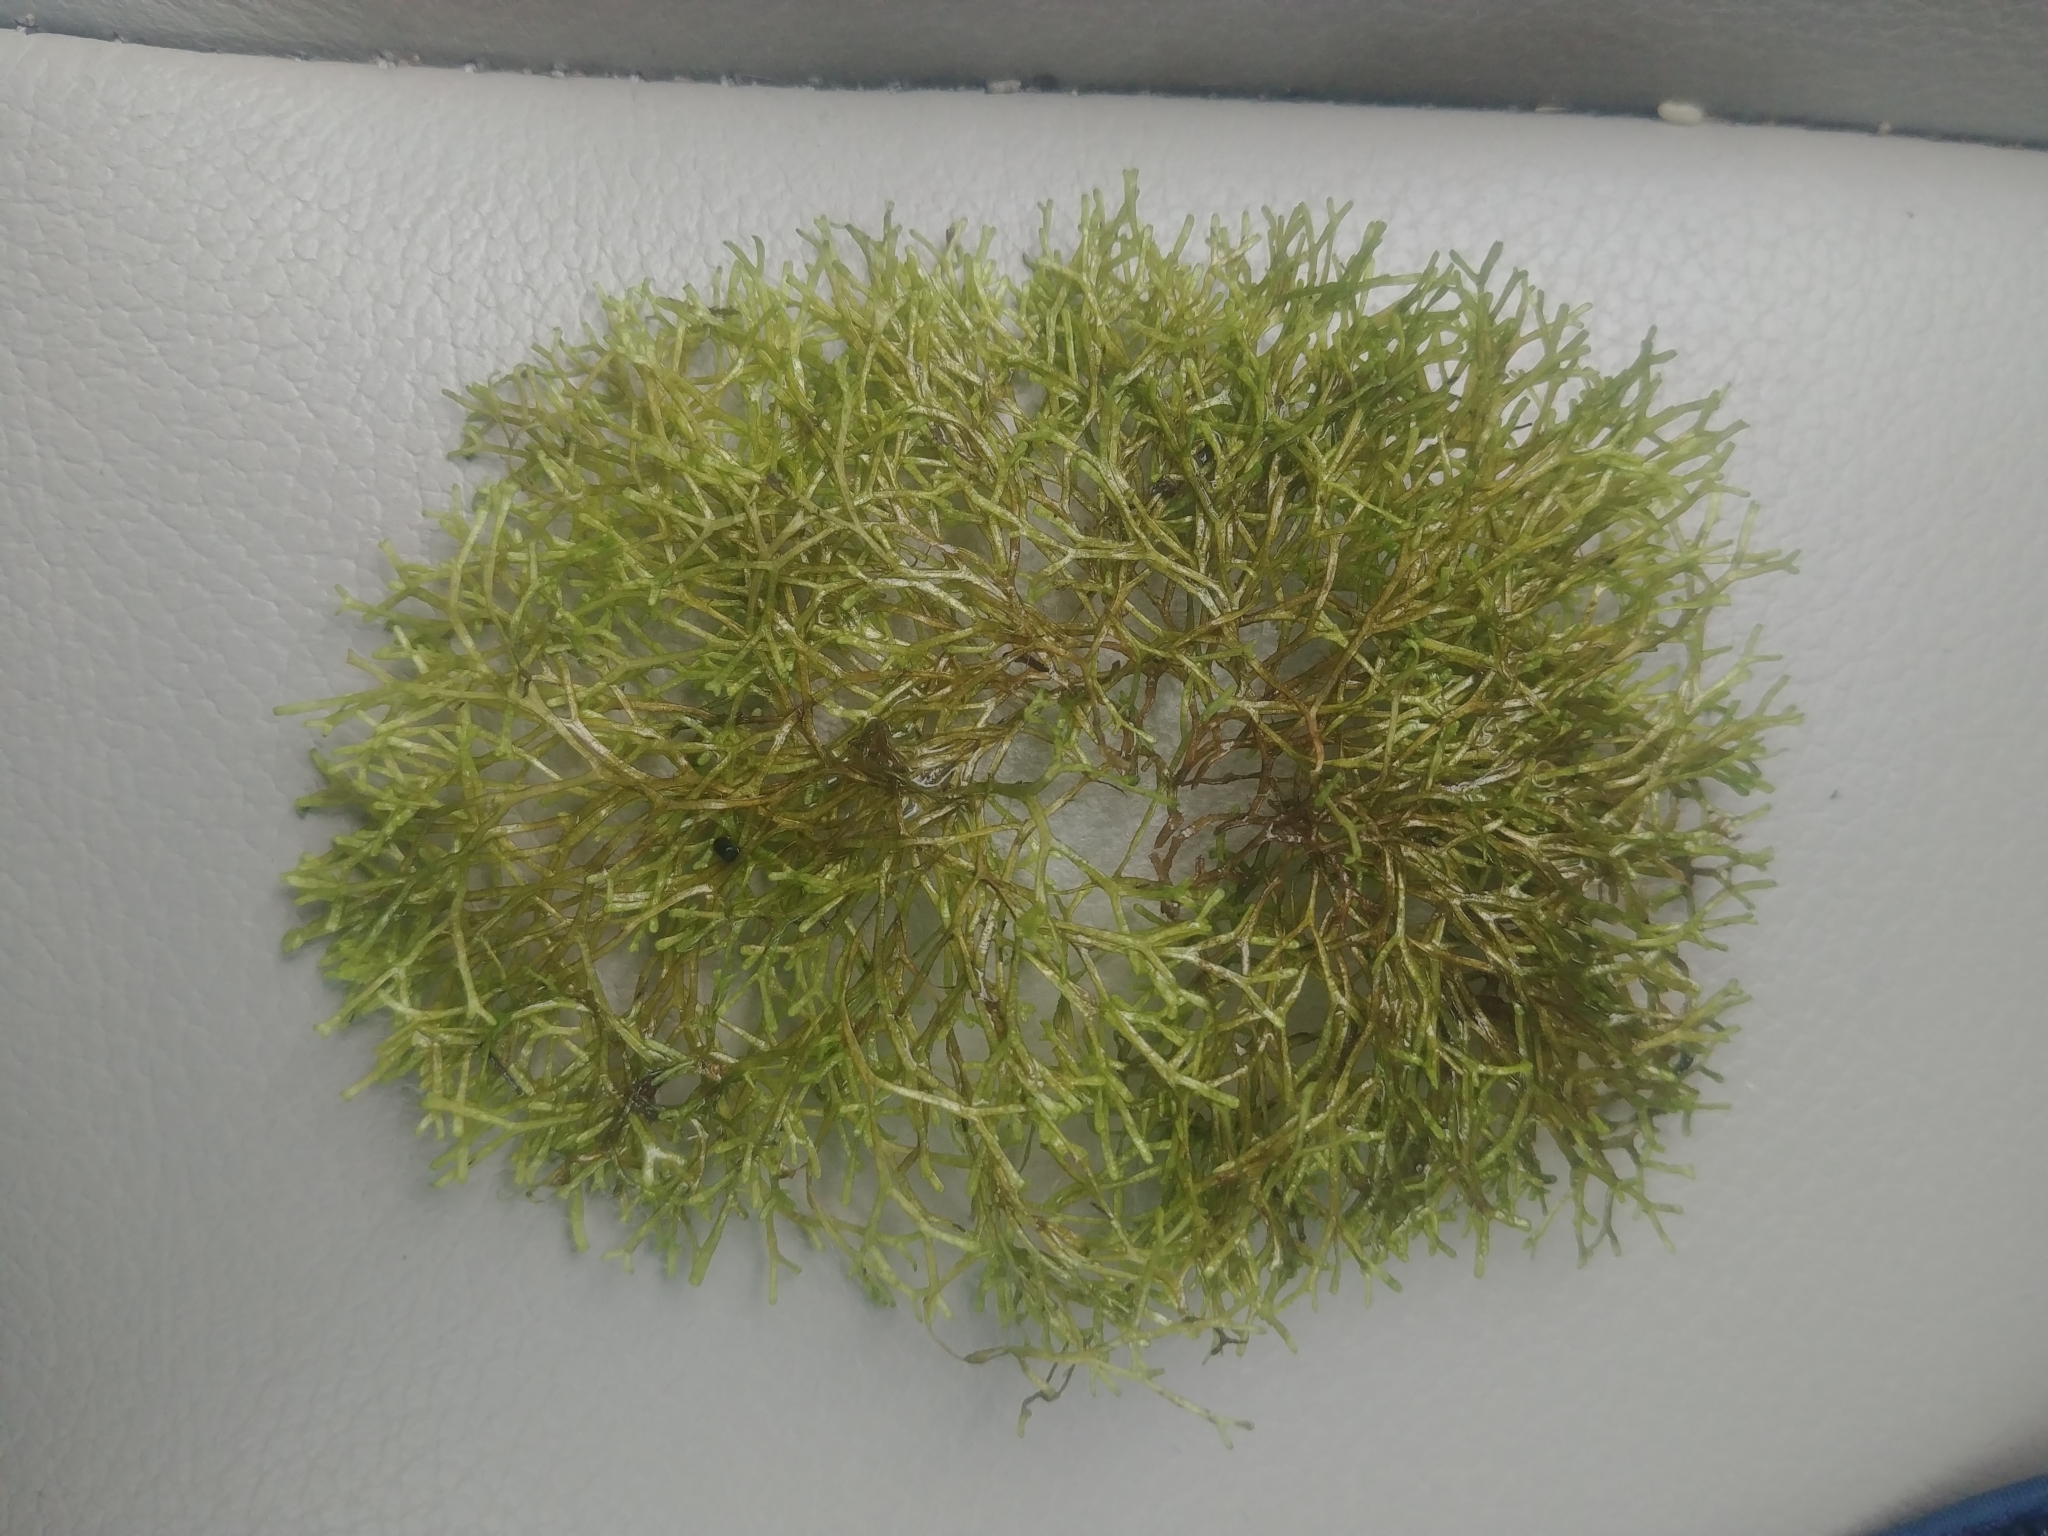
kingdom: Plantae
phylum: Marchantiophyta
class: Marchantiopsida
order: Marchantiales
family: Ricciaceae
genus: Riccia
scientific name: Riccia fluitans
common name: Floating crystalwort
